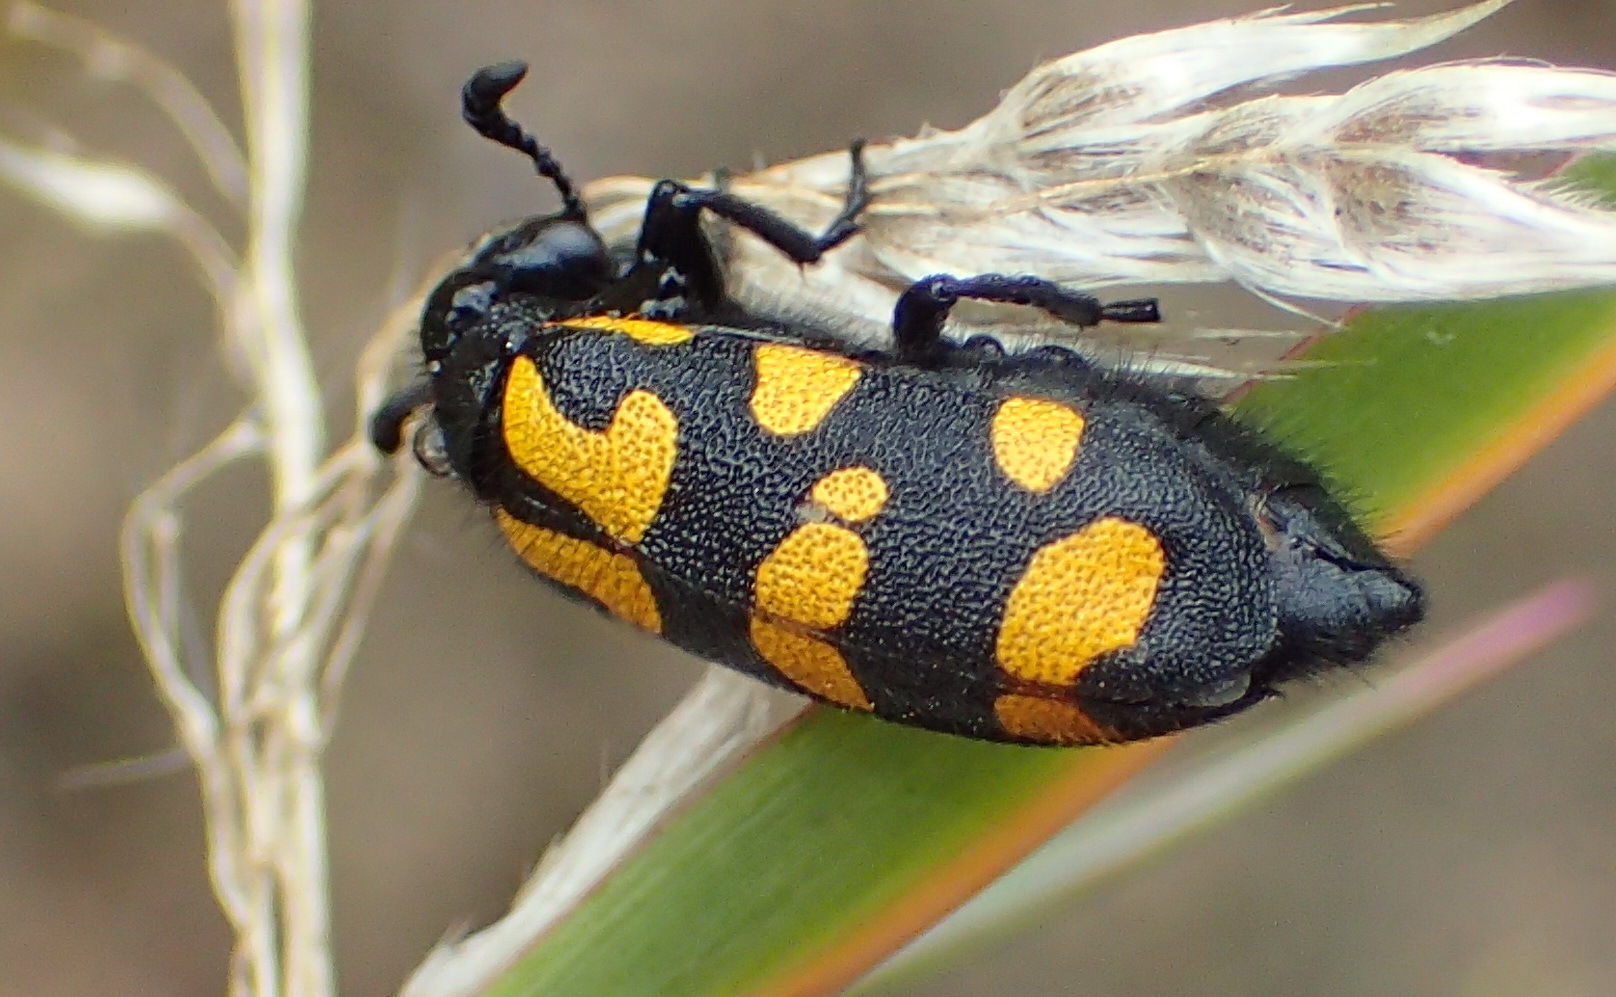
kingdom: Animalia
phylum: Arthropoda
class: Insecta
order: Coleoptera
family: Meloidae
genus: Ceroctis
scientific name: Ceroctis capensis
